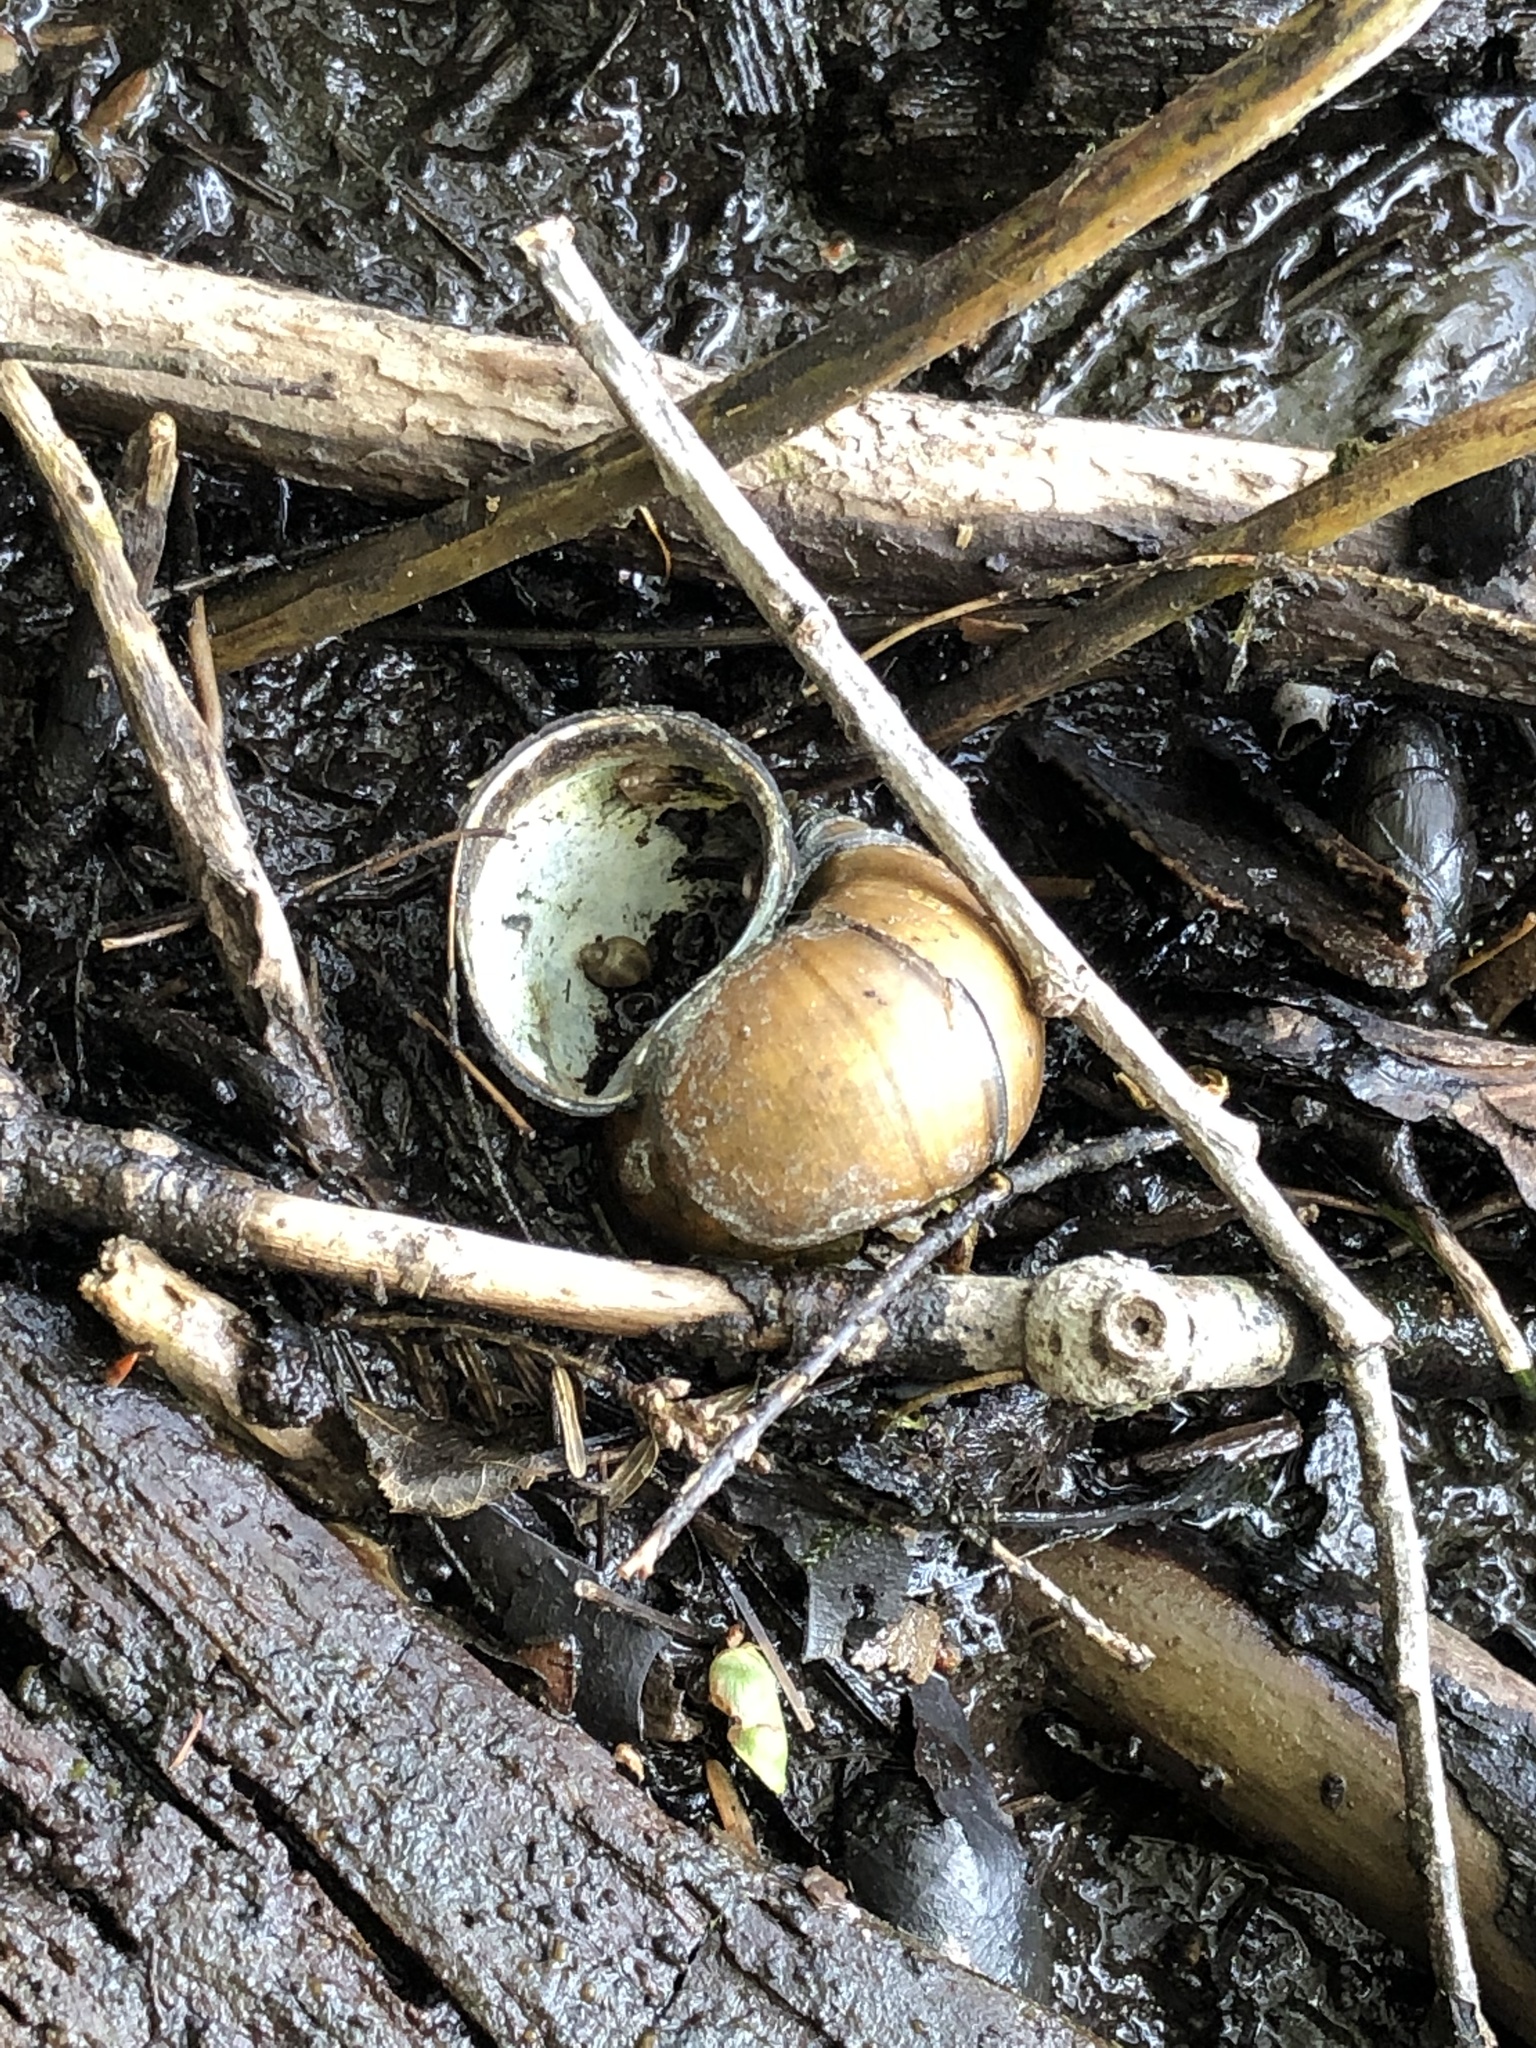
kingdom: Animalia
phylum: Mollusca
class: Gastropoda
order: Architaenioglossa
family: Viviparidae
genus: Cipangopaludina
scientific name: Cipangopaludina chinensis
